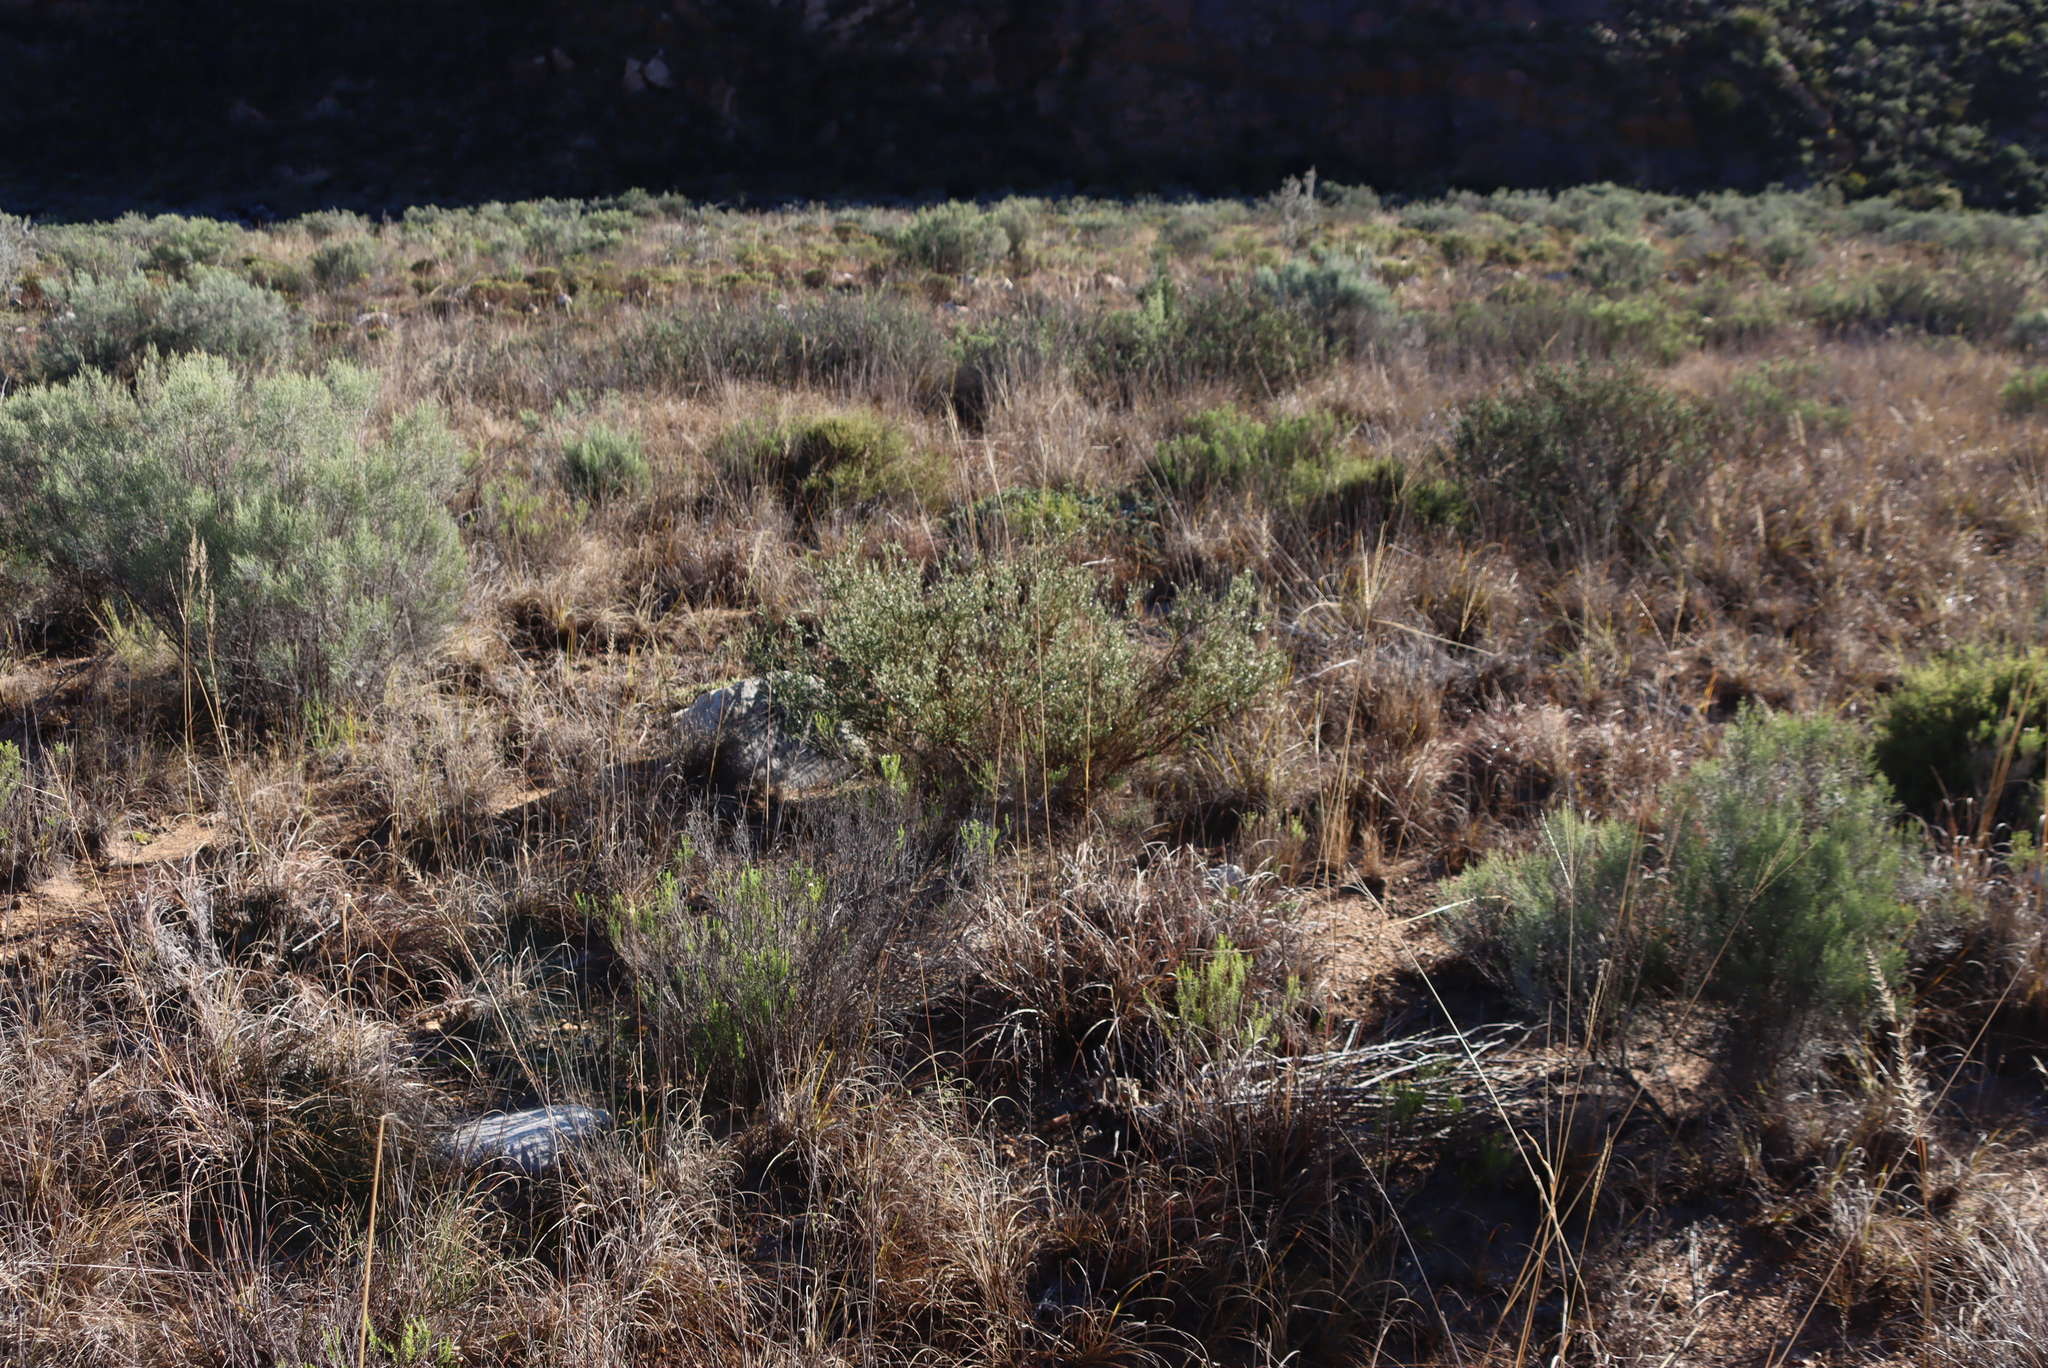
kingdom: Plantae
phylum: Tracheophyta
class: Magnoliopsida
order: Fabales
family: Polygalaceae
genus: Muraltia
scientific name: Muraltia spinosa
